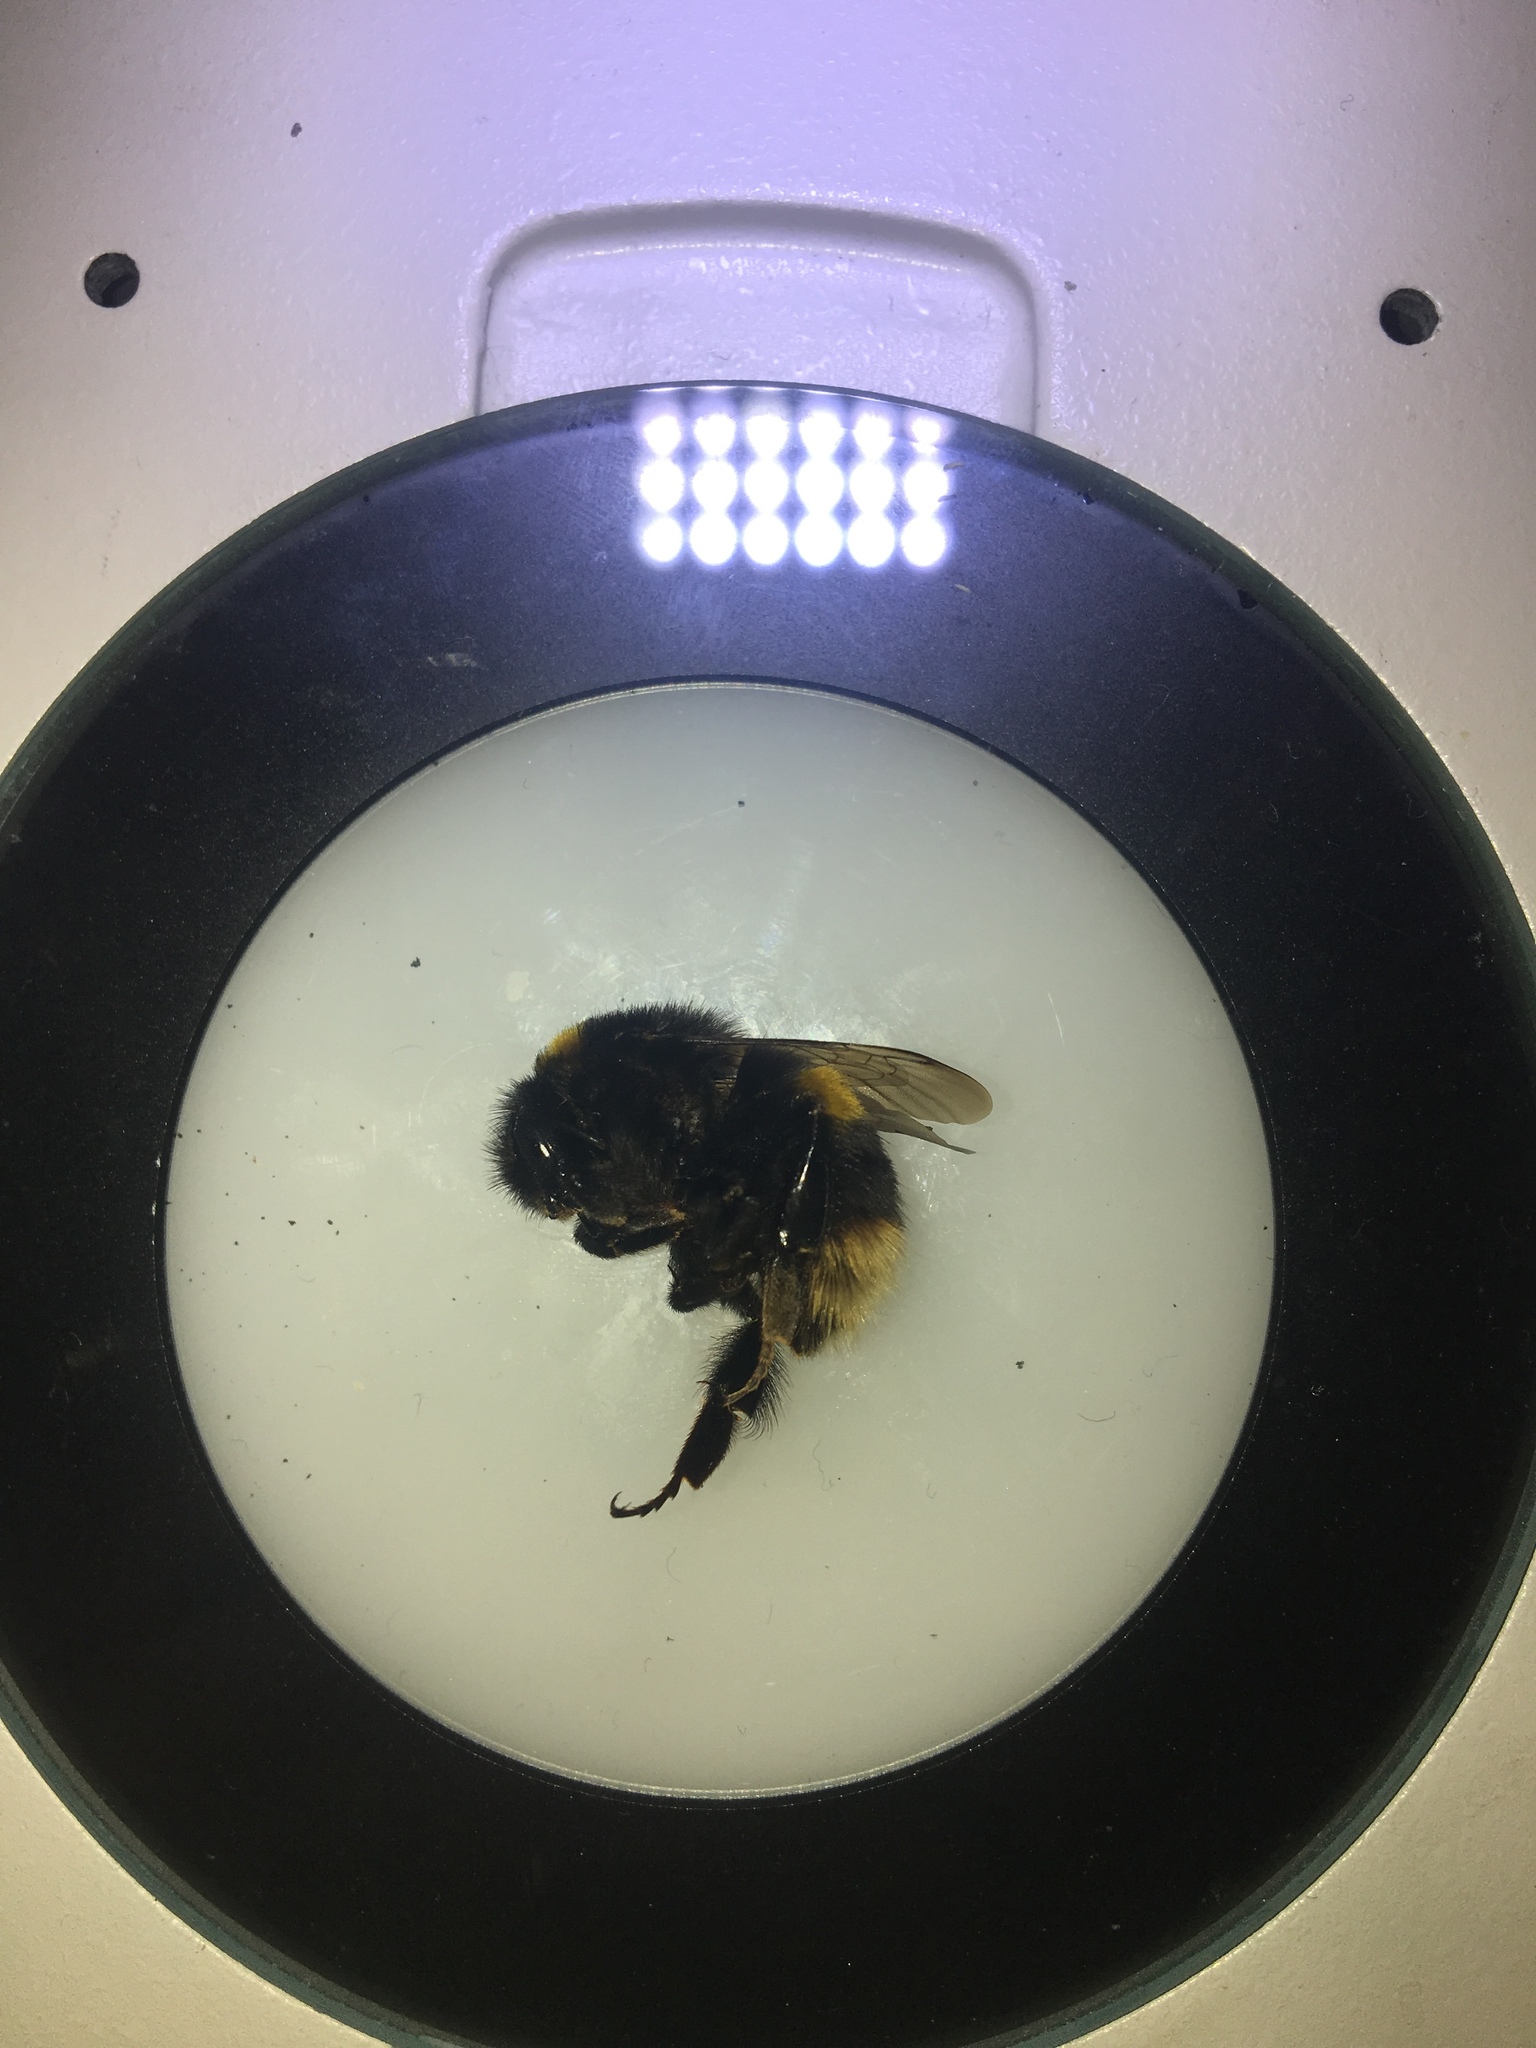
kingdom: Animalia
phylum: Arthropoda
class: Insecta
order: Hymenoptera
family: Apidae
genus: Bombus
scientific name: Bombus terrestris
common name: Buff-tailed bumblebee
